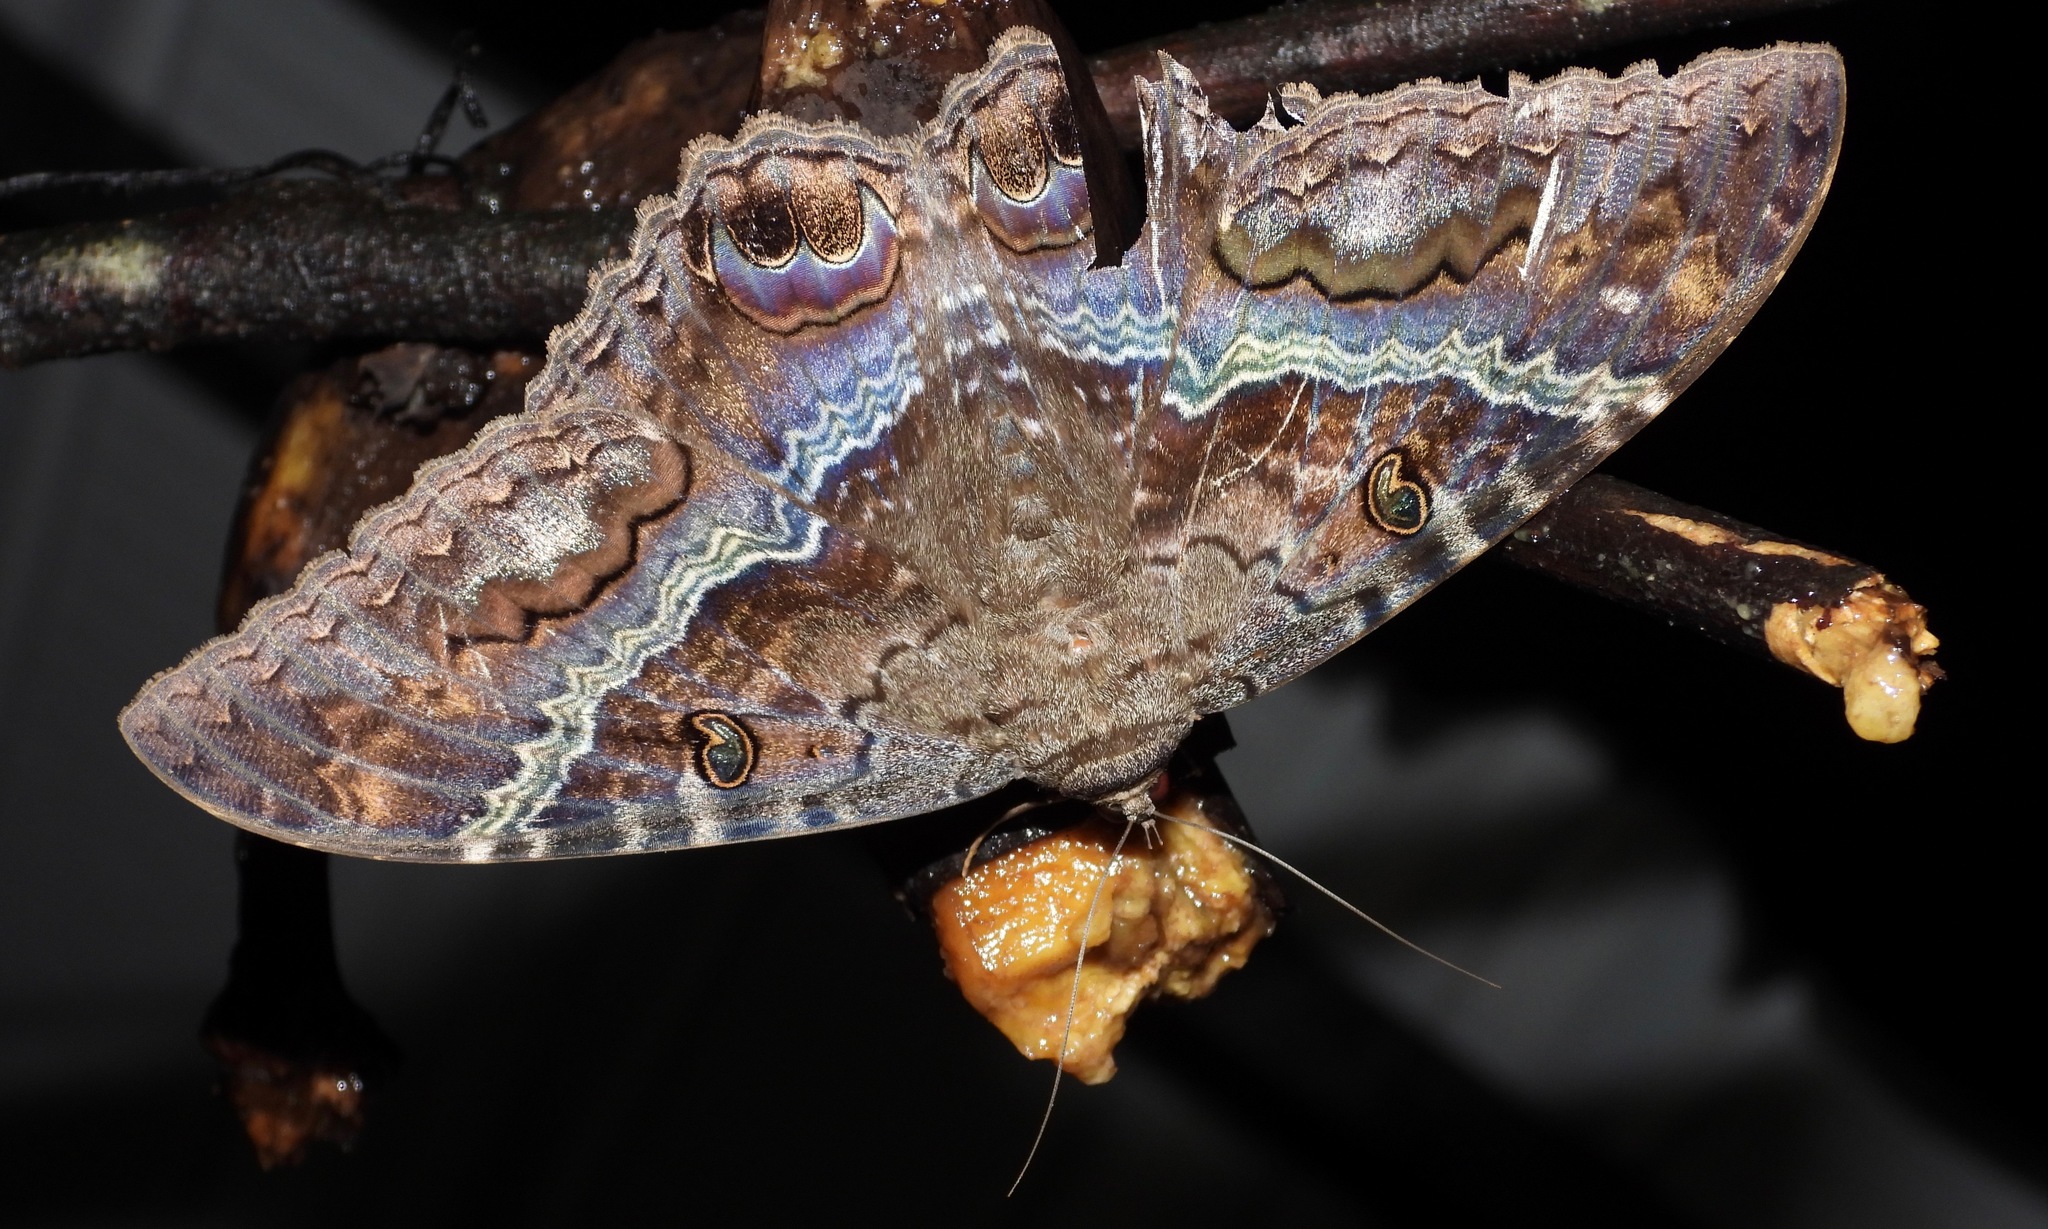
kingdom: Animalia
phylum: Arthropoda
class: Insecta
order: Lepidoptera
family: Erebidae
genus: Ascalapha
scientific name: Ascalapha odorata
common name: Black witch
